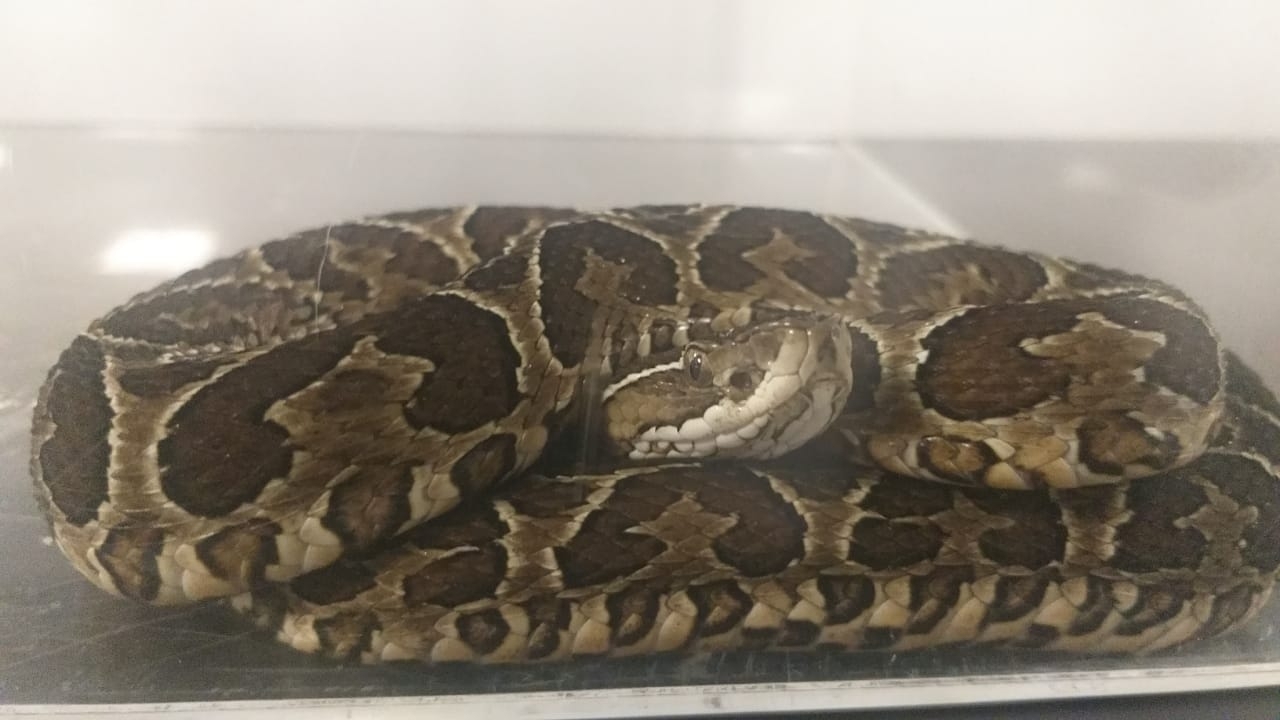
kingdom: Animalia
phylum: Chordata
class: Squamata
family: Viperidae
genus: Bothrops
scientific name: Bothrops alternatus
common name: Urutu
